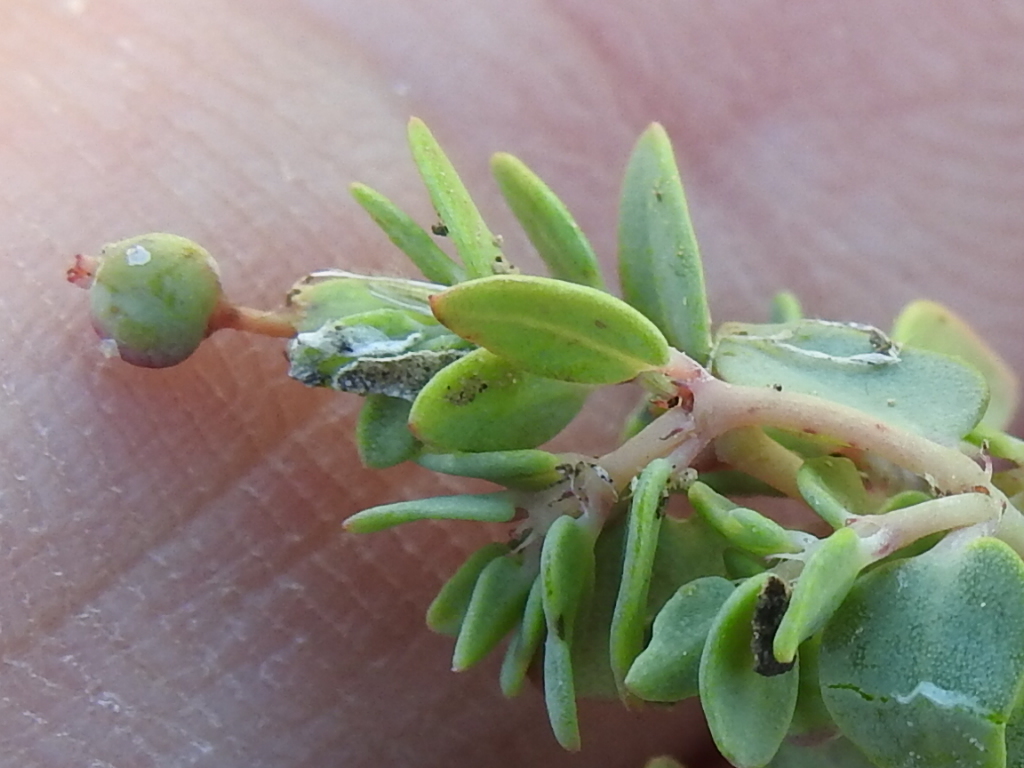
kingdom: Plantae
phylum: Tracheophyta
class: Magnoliopsida
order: Malpighiales
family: Euphorbiaceae
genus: Euphorbia
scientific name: Euphorbia fendleri
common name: Fendler's euphorbia
